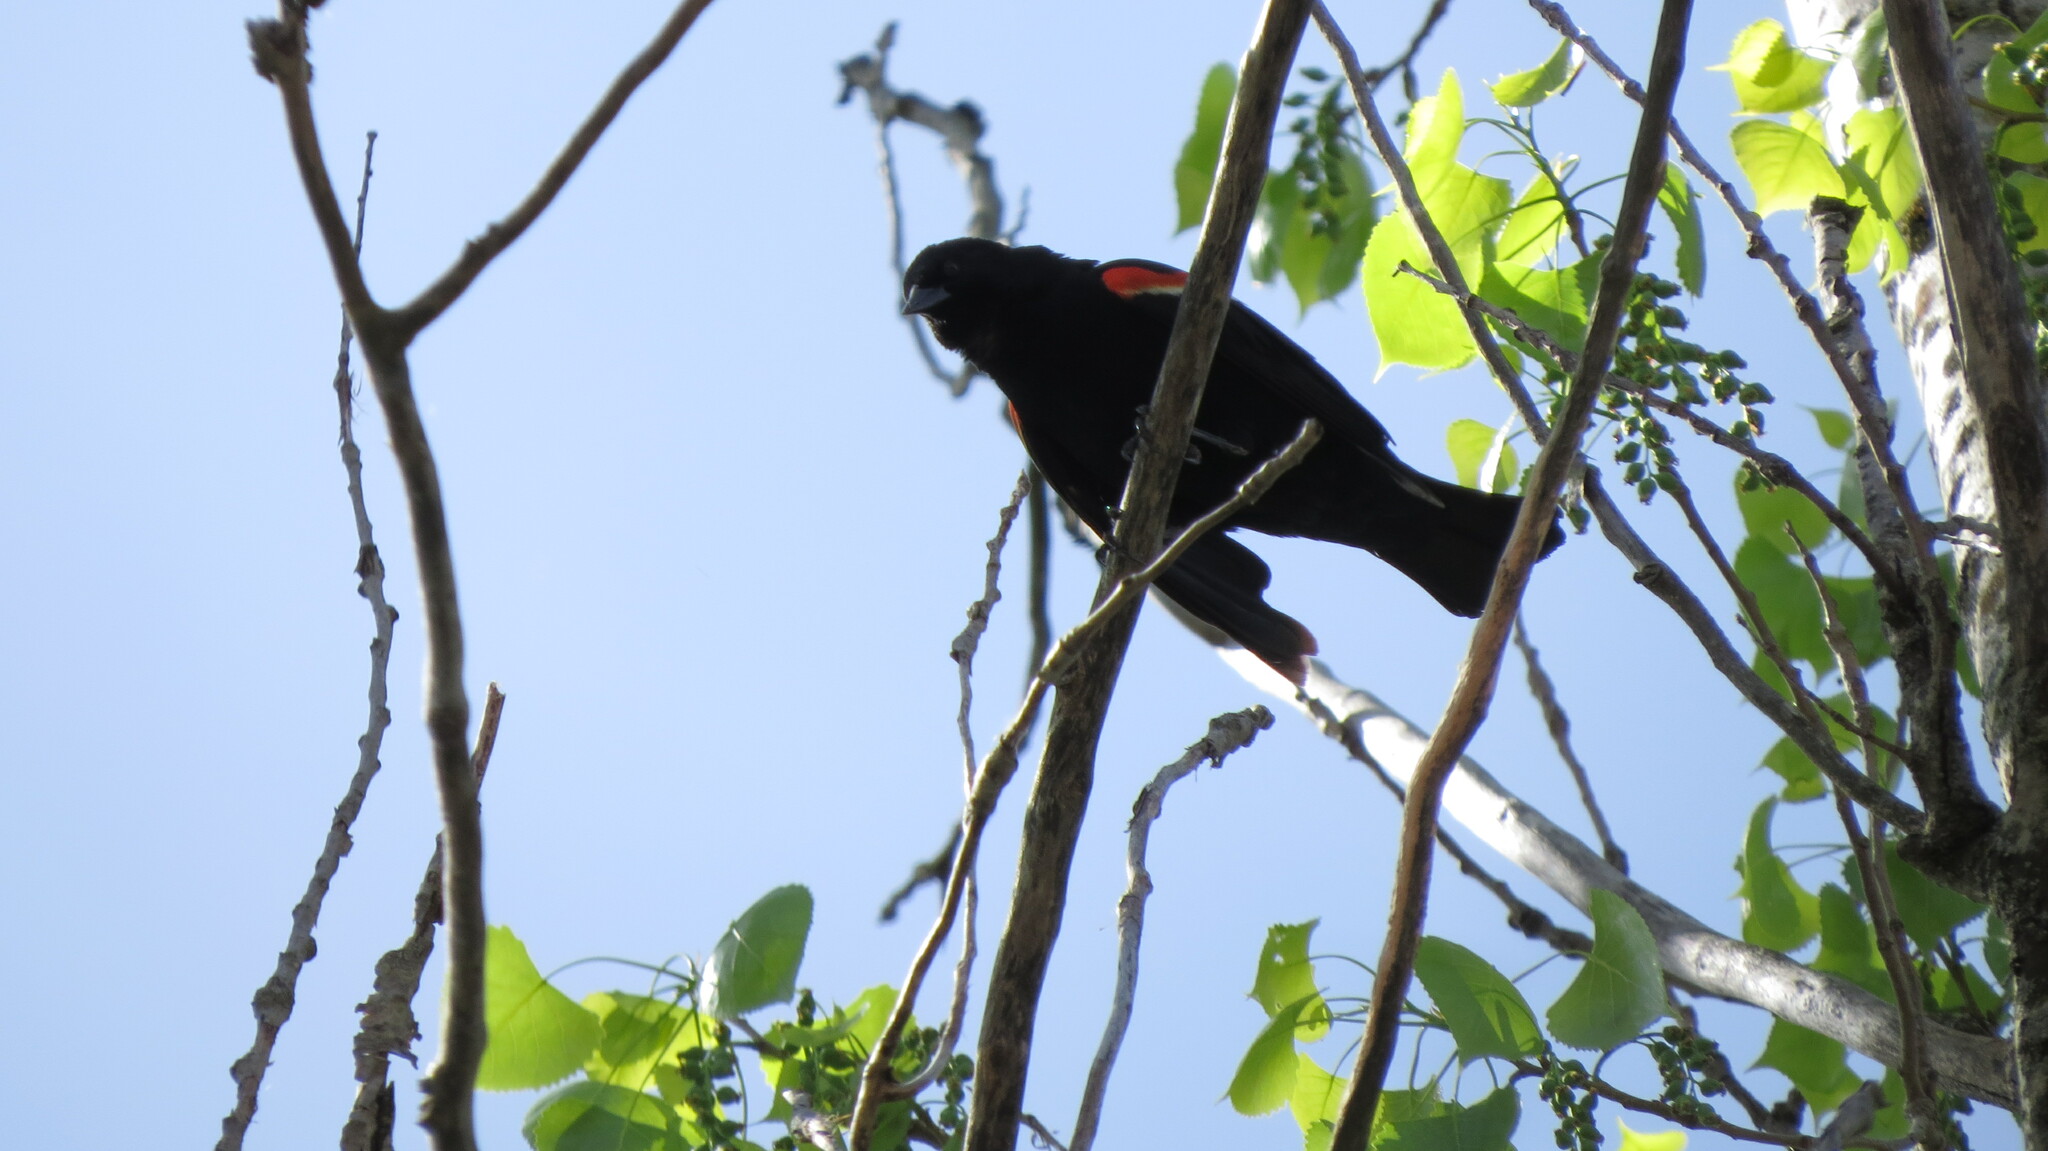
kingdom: Animalia
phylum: Chordata
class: Aves
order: Passeriformes
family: Icteridae
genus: Agelaius
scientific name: Agelaius phoeniceus
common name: Red-winged blackbird
